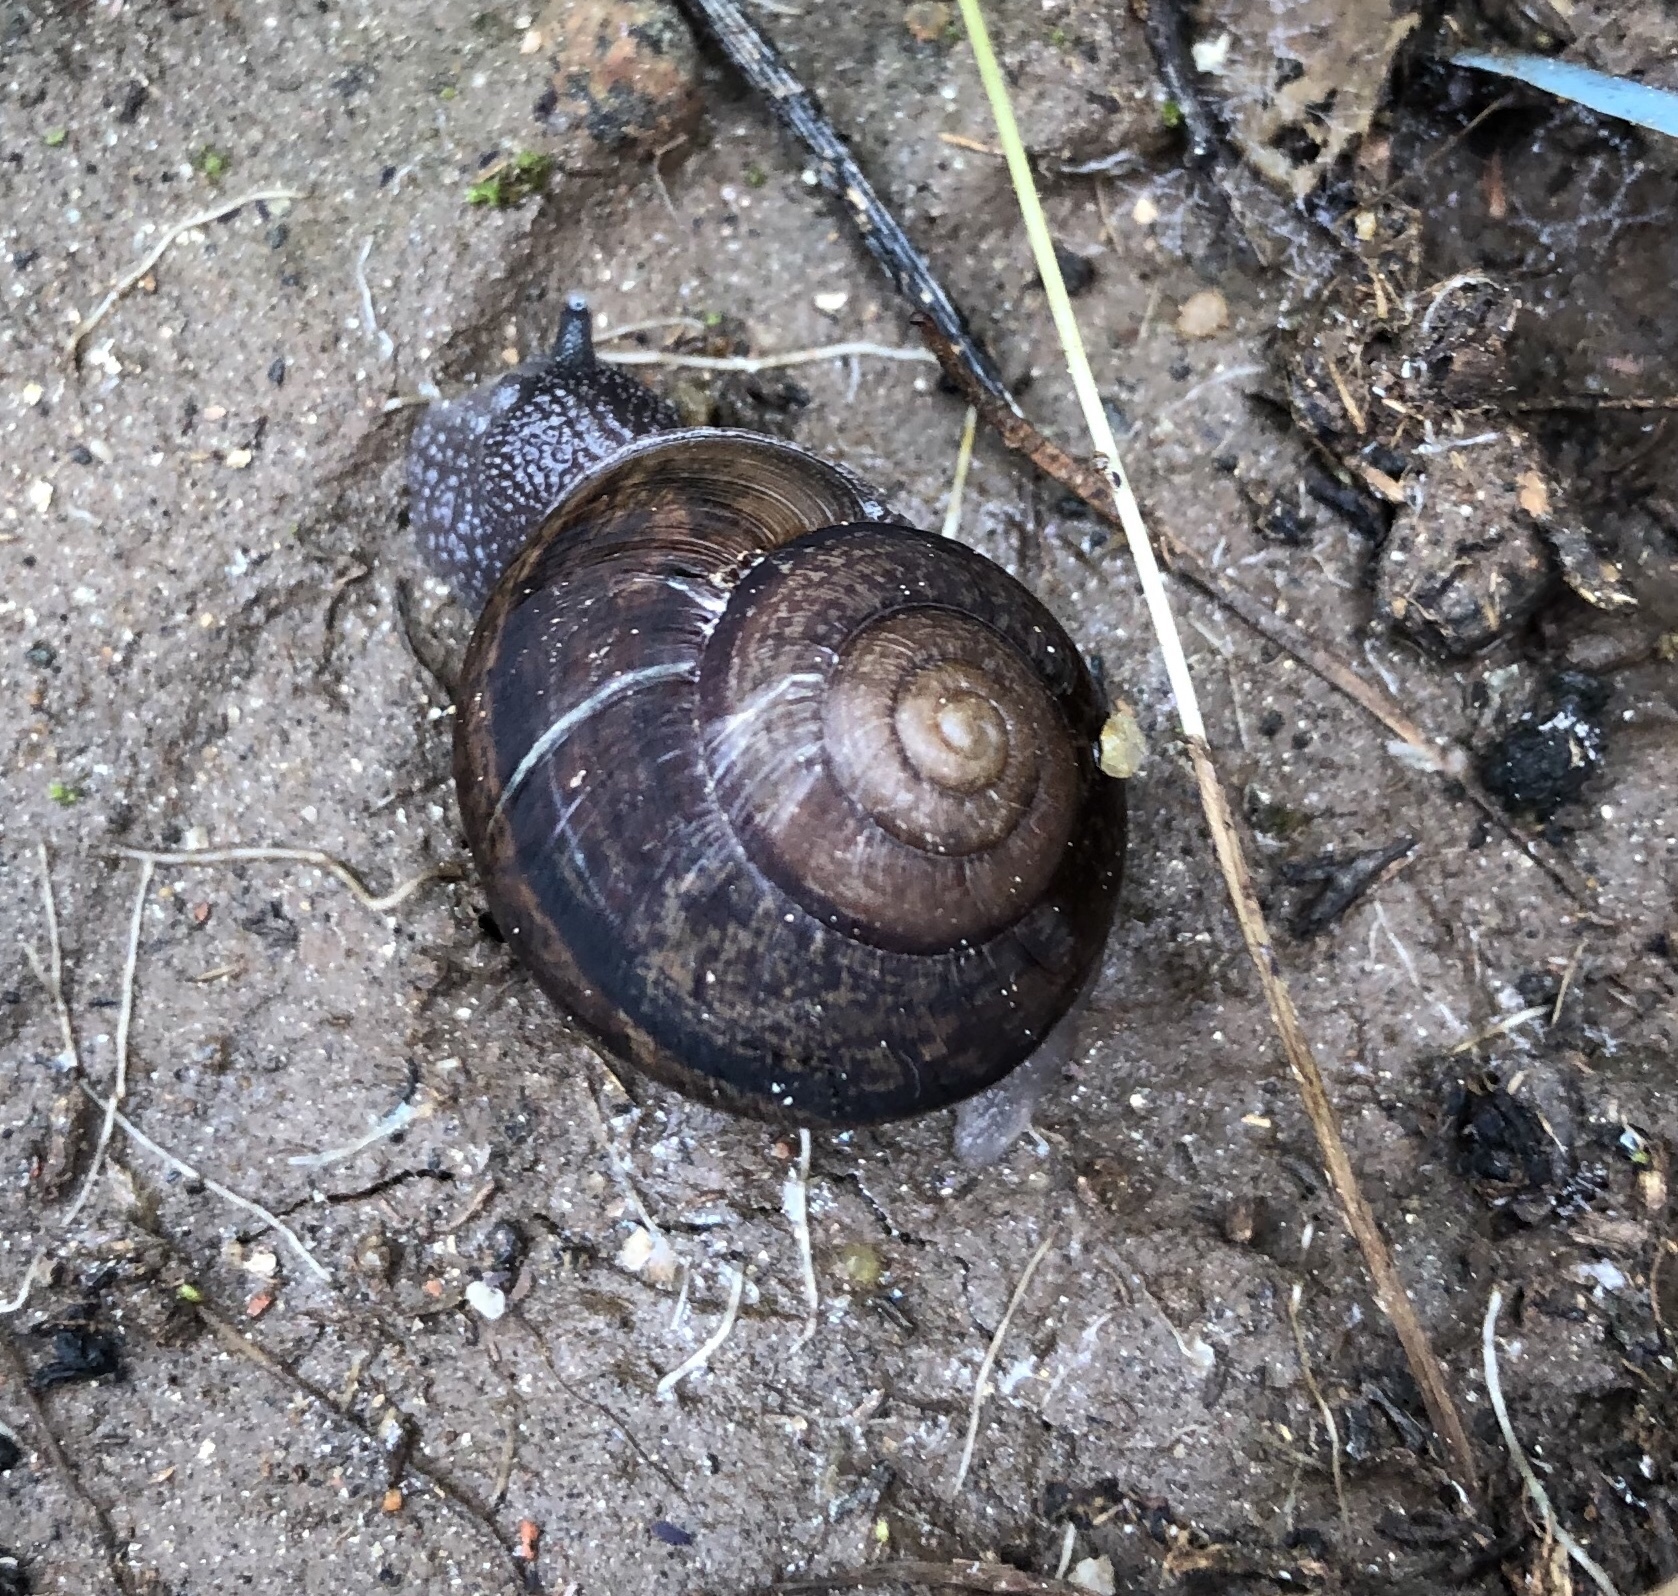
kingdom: Animalia
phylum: Mollusca
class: Gastropoda
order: Stylommatophora
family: Xanthonychidae
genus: Xerarionta
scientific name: Xerarionta stearnsiana
